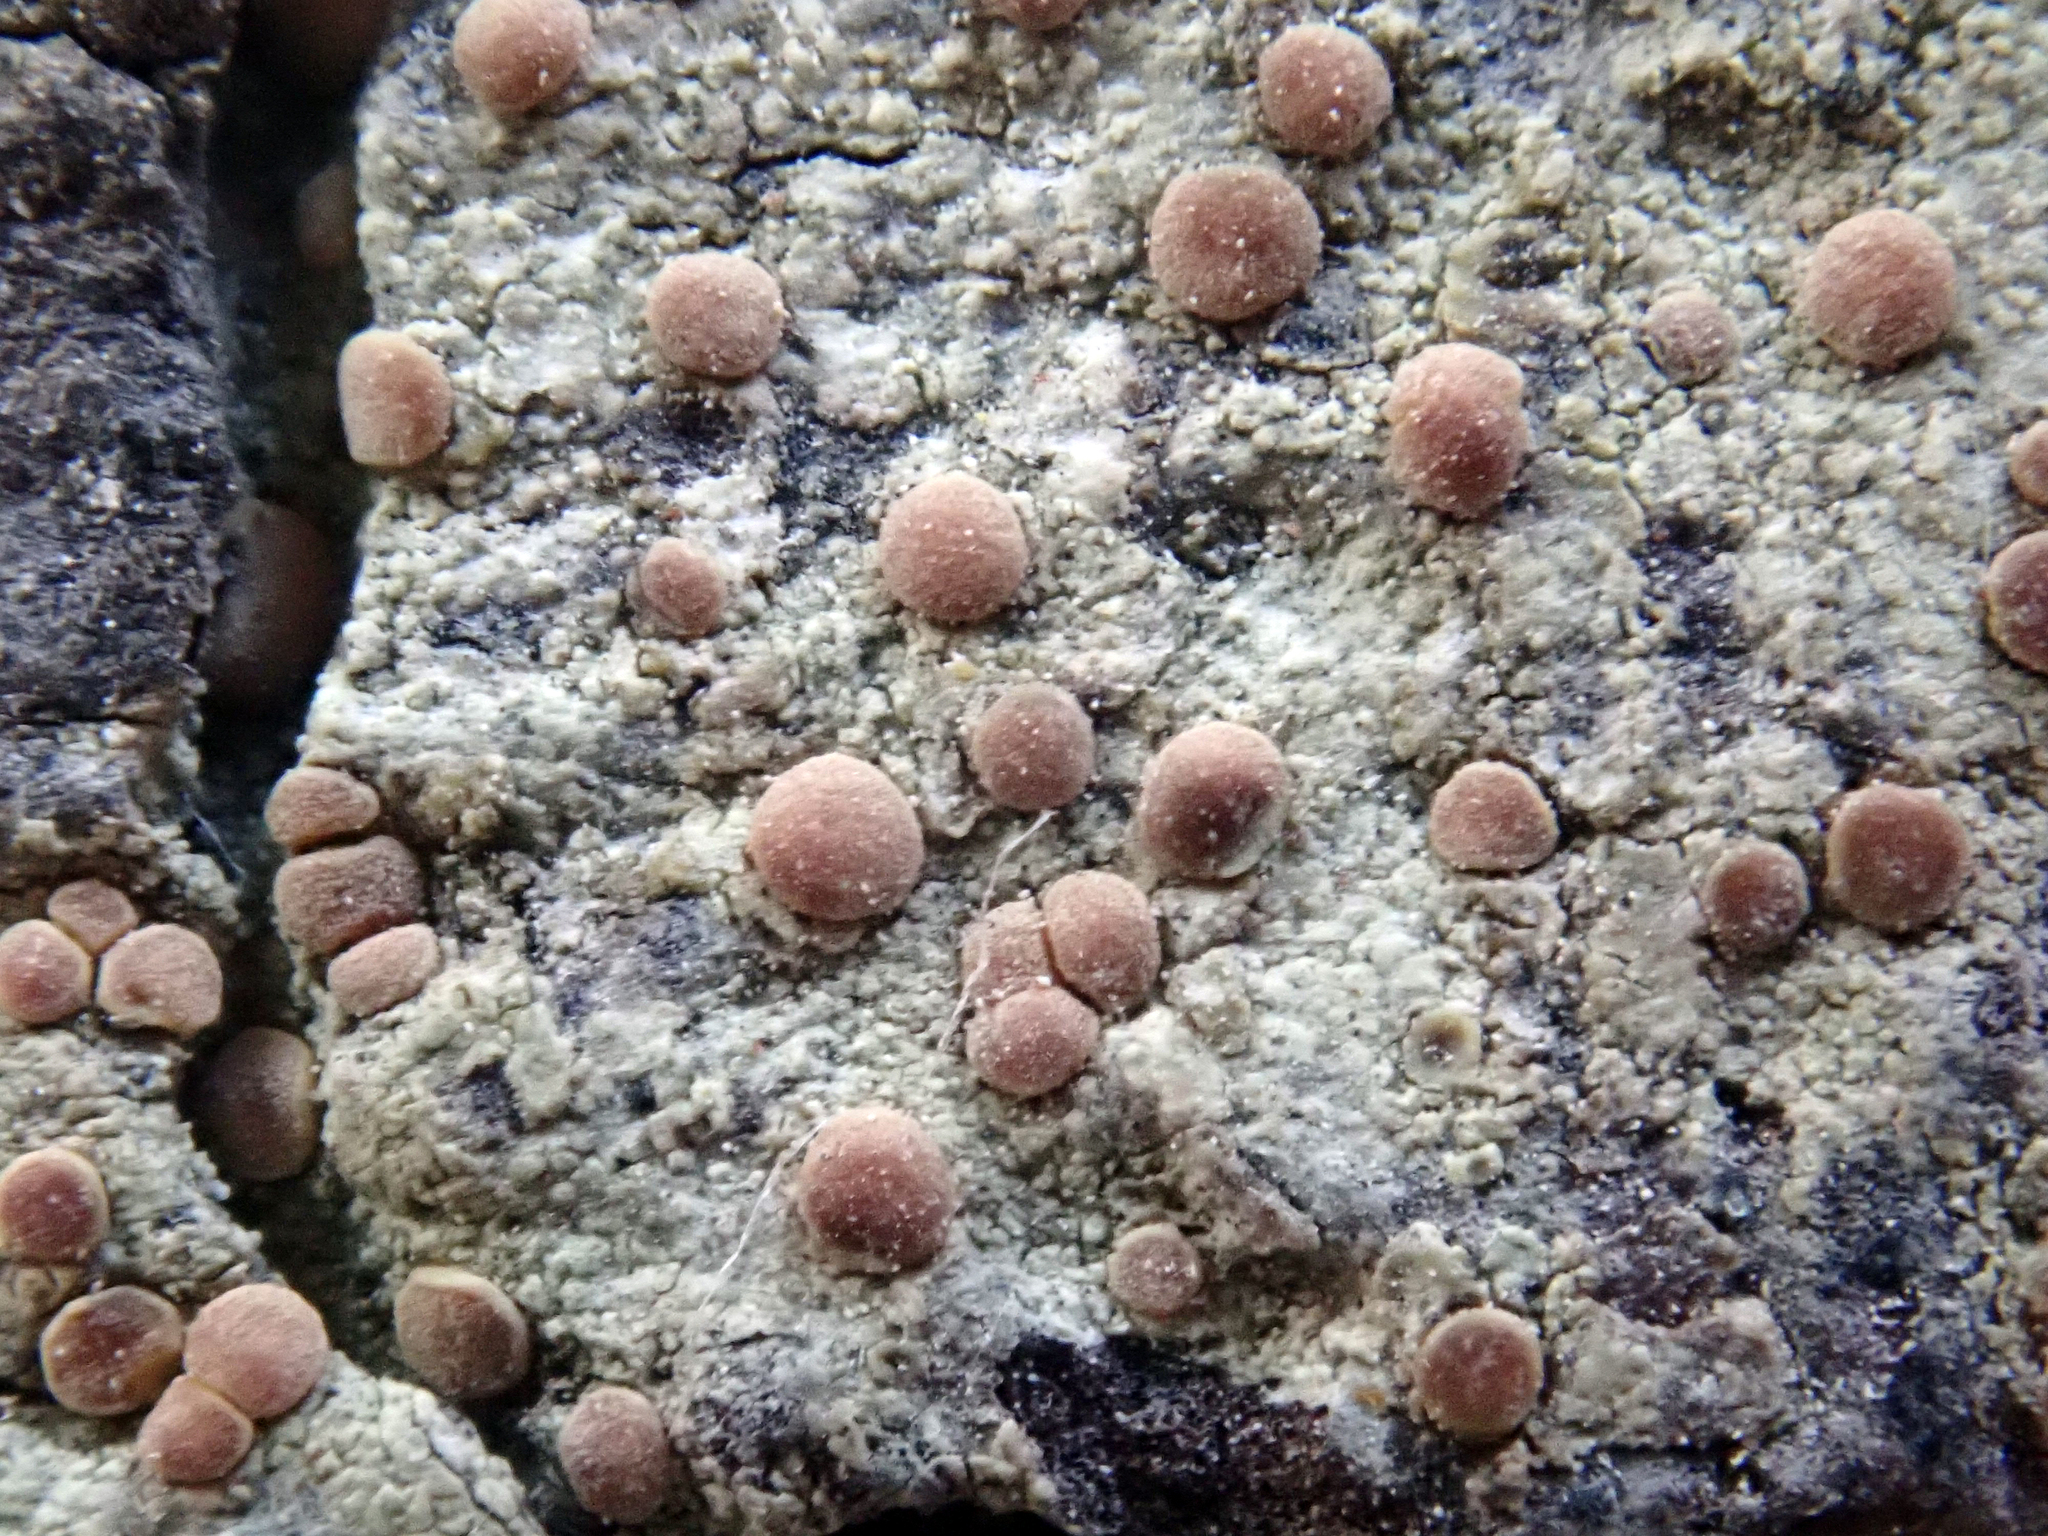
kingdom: Fungi
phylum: Ascomycota
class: Lecanoromycetes
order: Lecanorales
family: Lecanoraceae
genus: Lecanora
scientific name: Lecanora flavopallida
